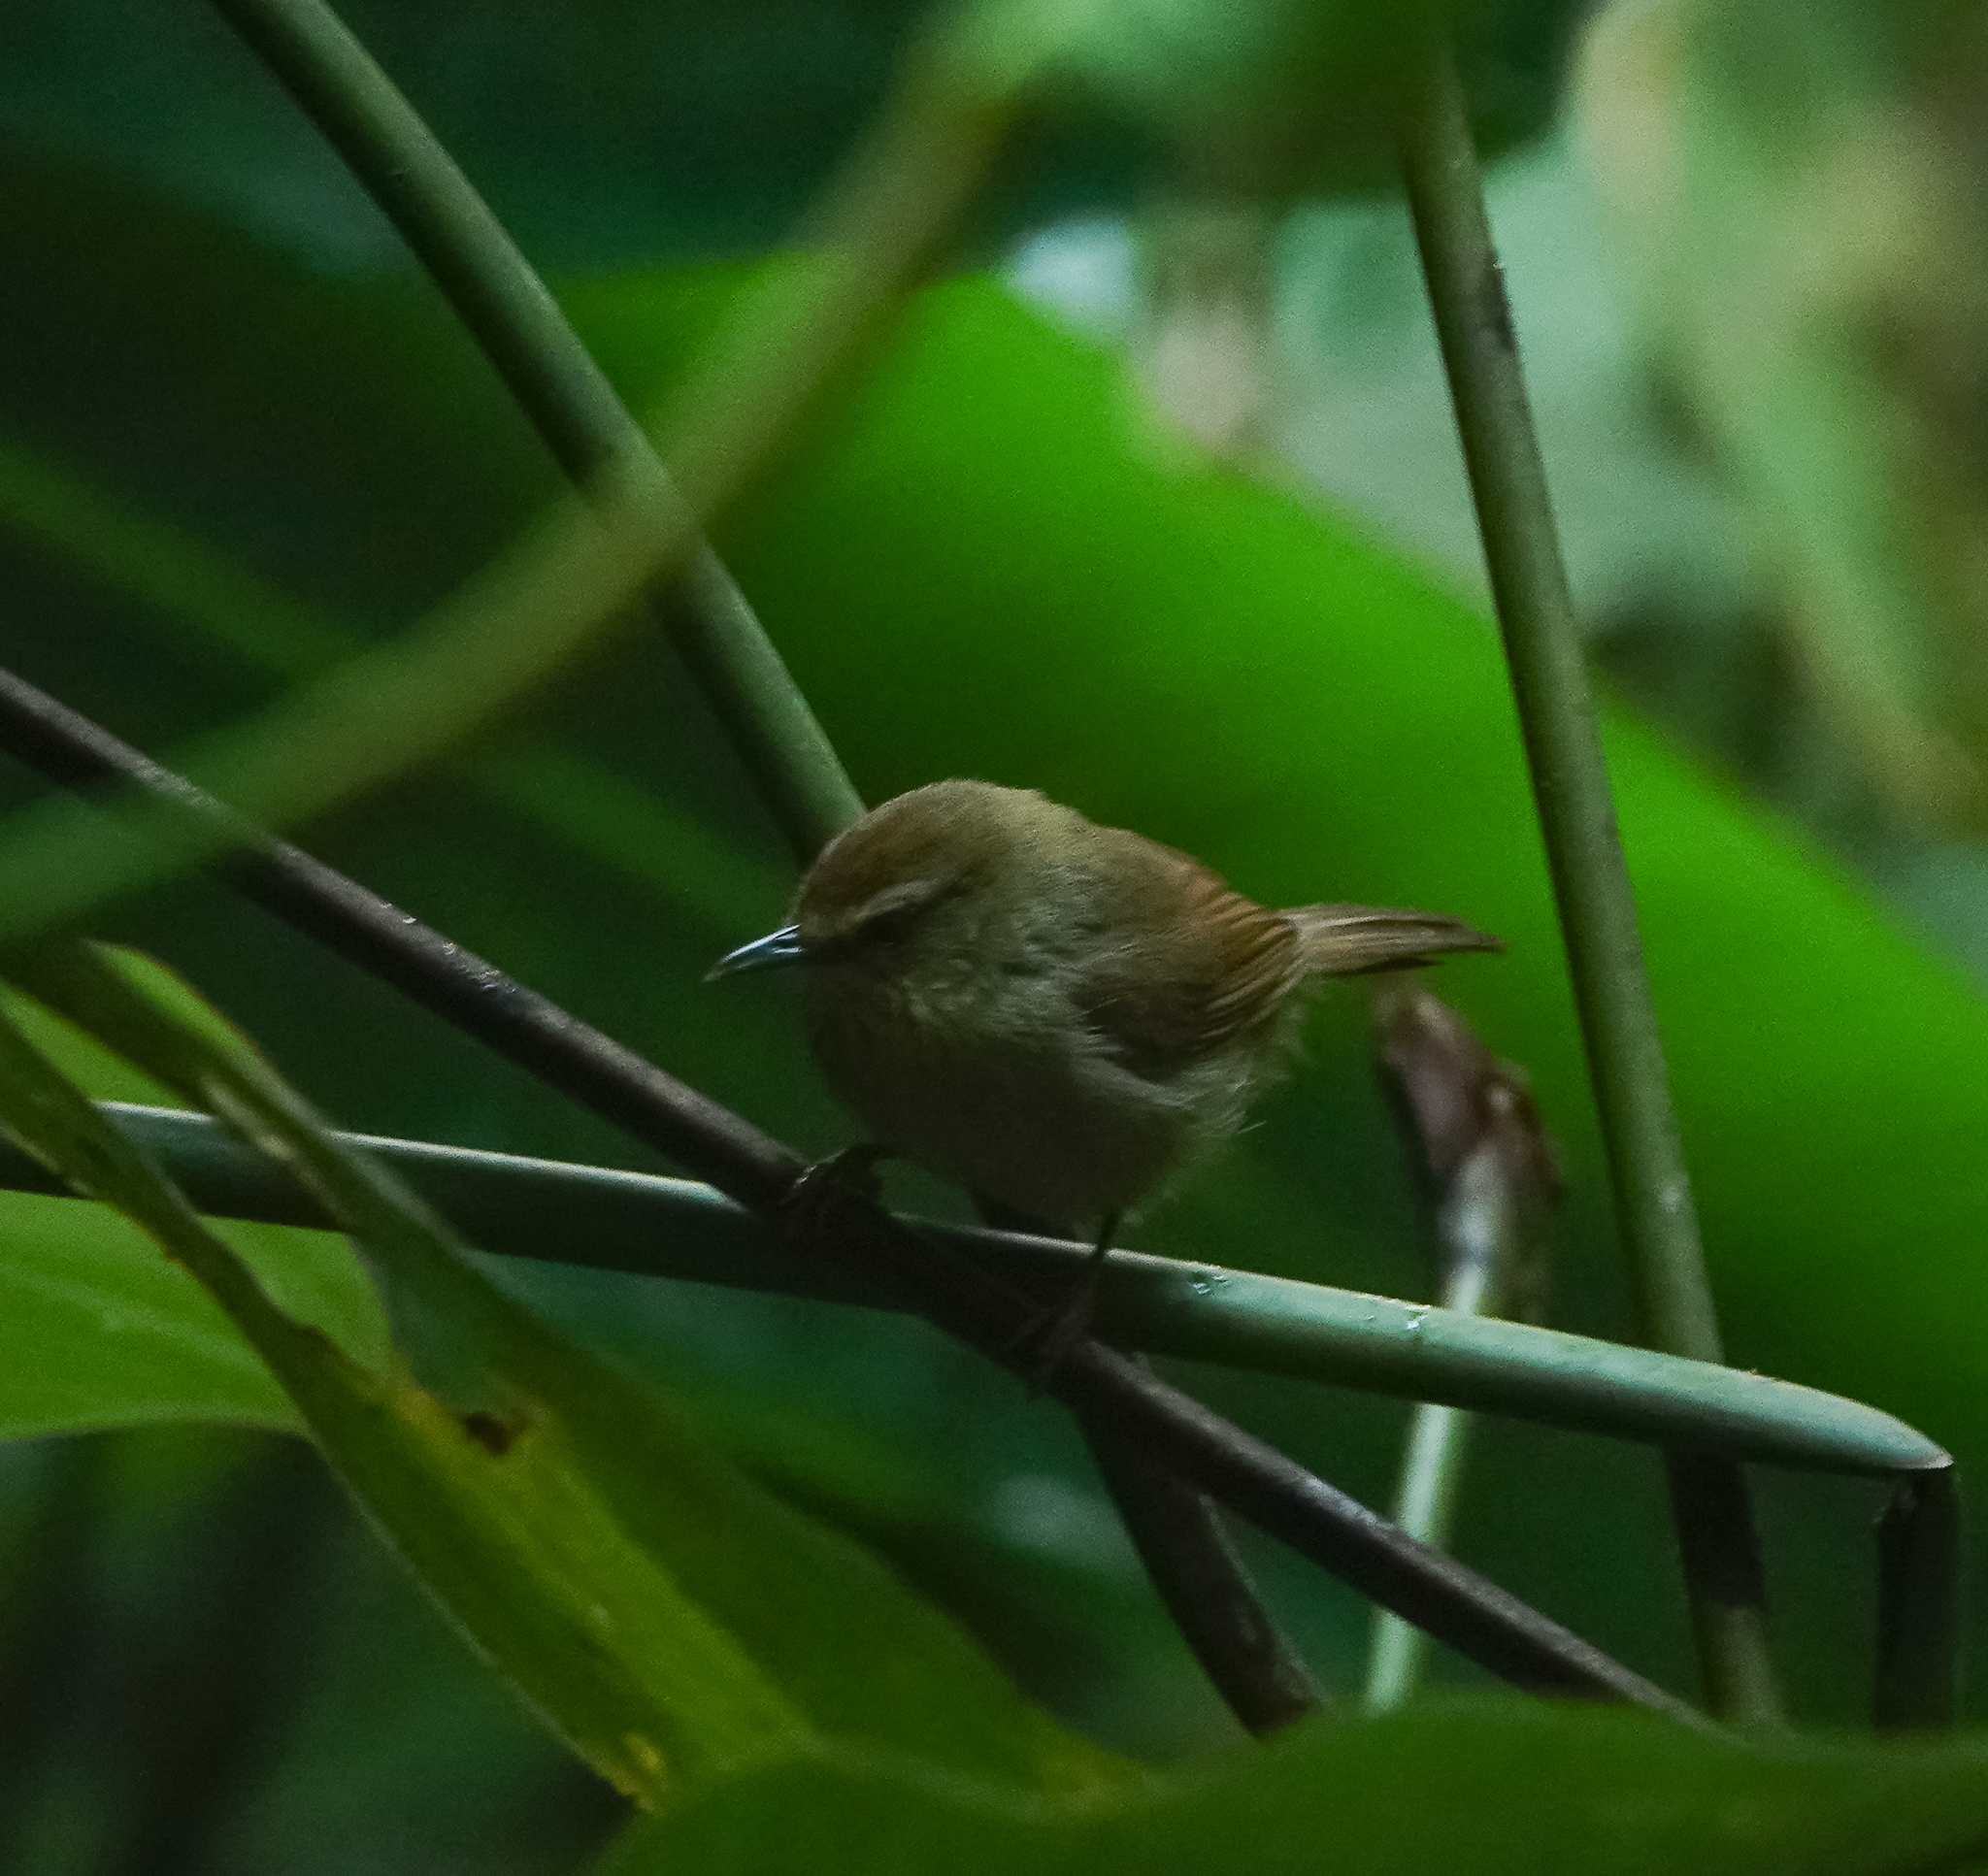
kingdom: Animalia
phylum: Chordata
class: Aves
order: Passeriformes
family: Timaliidae
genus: Macronus
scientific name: Macronus gularis
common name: Striped tit-babbler
